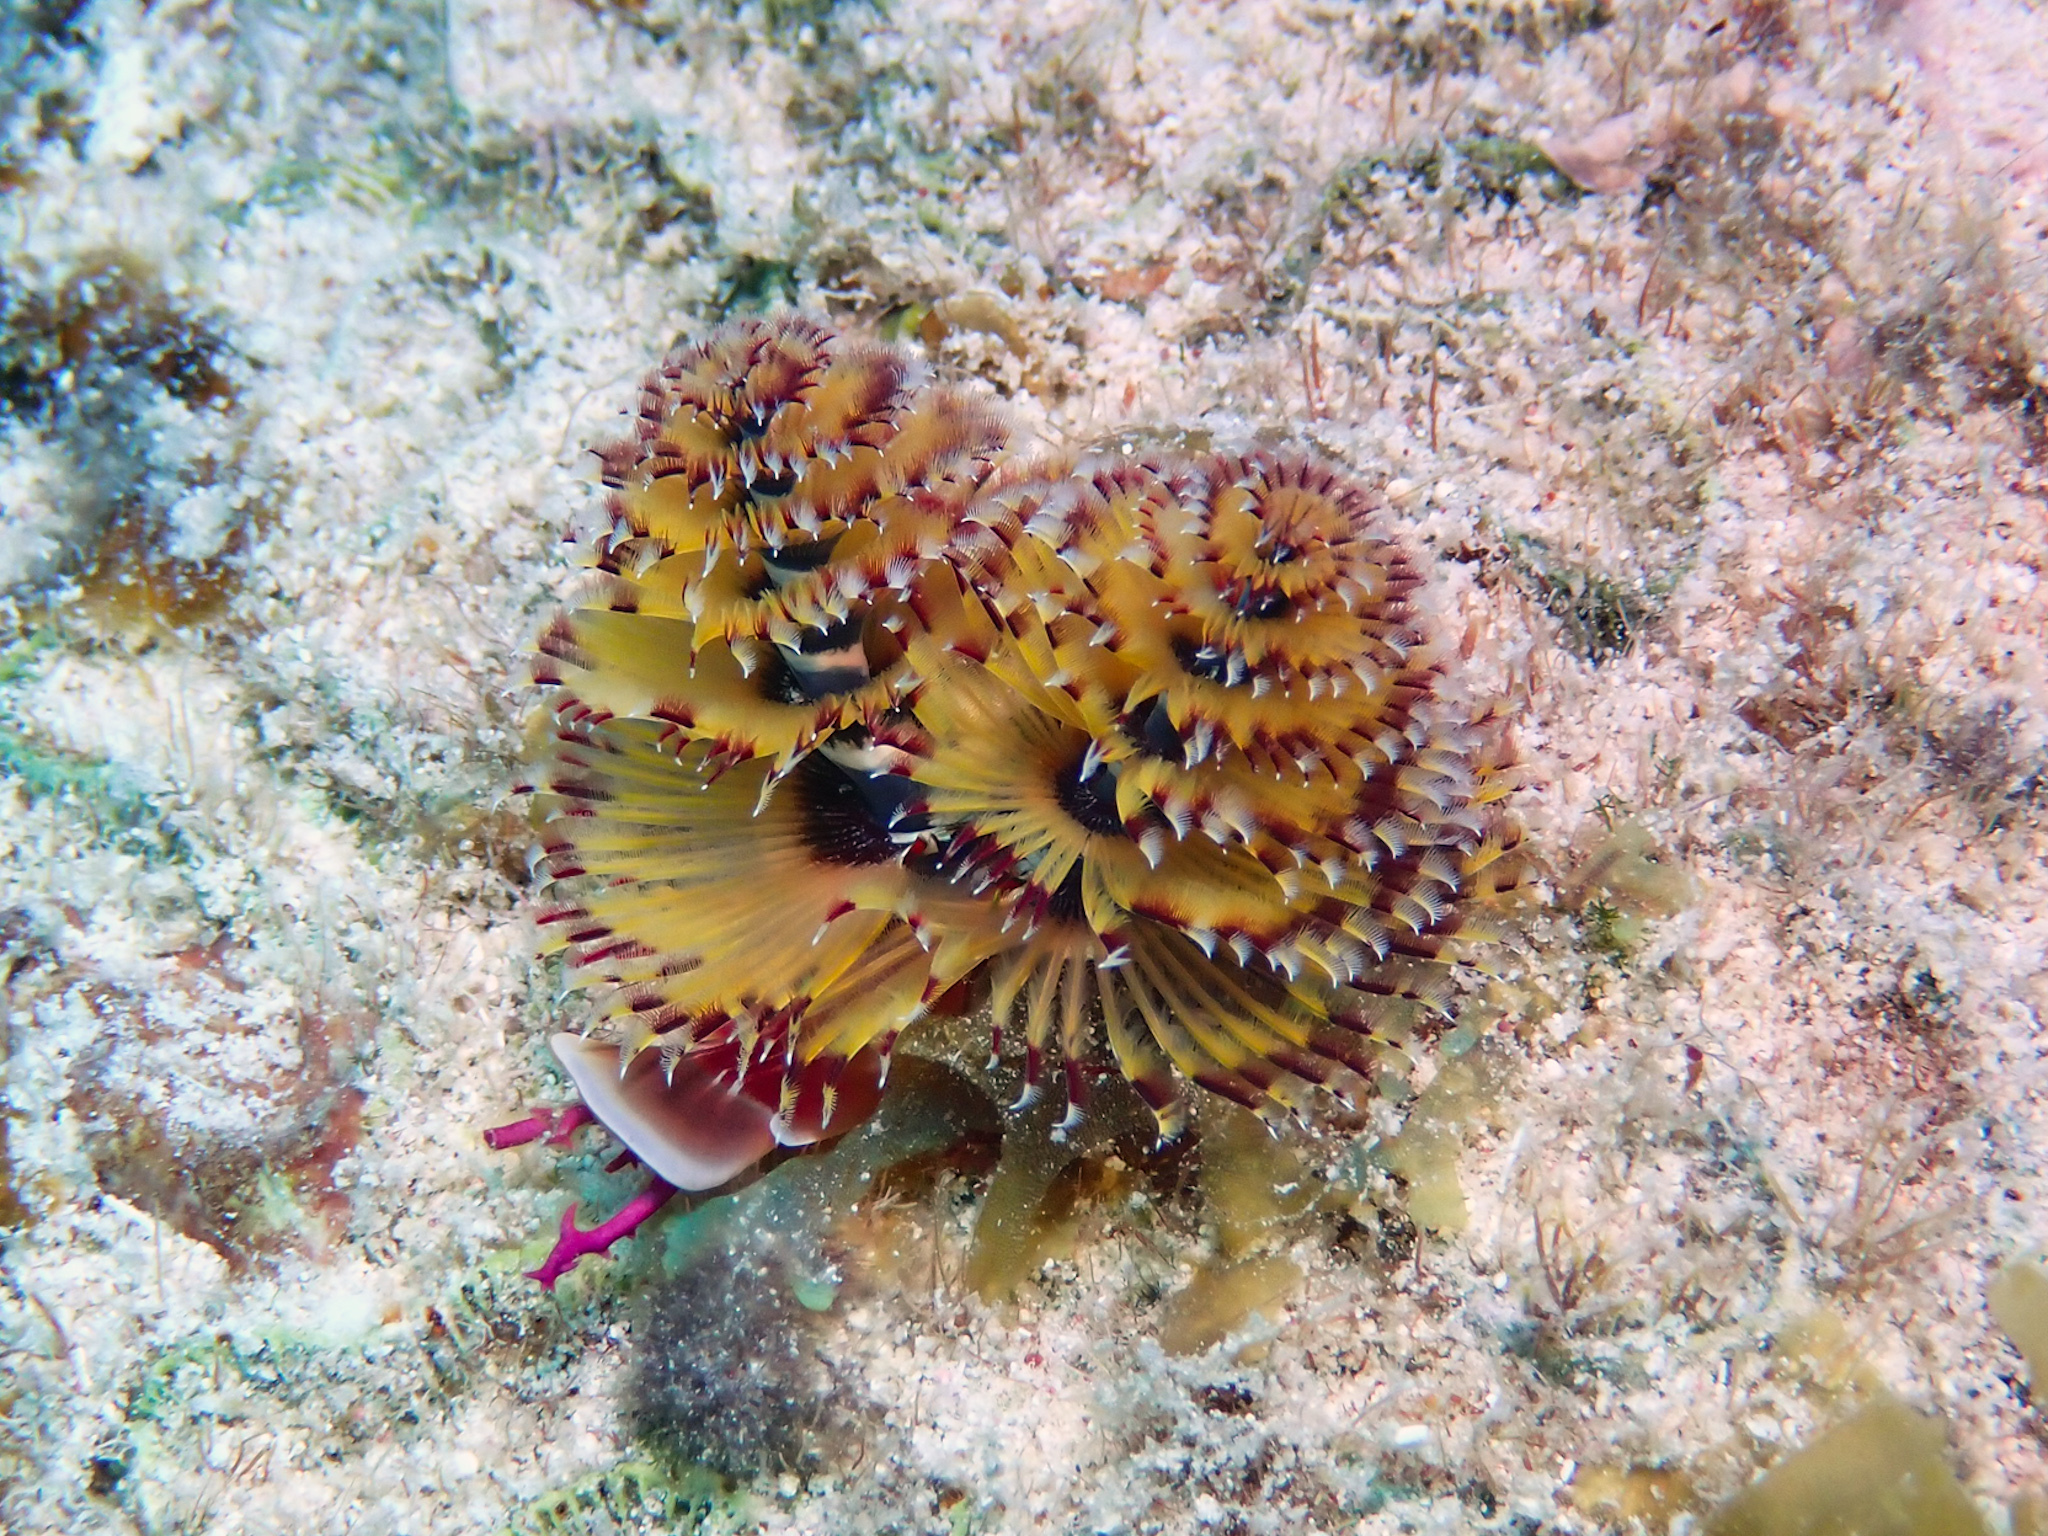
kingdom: Animalia
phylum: Annelida
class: Polychaeta
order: Sabellida
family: Serpulidae
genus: Spirobranchus
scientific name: Spirobranchus giganteus
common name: Christmas tree worm
